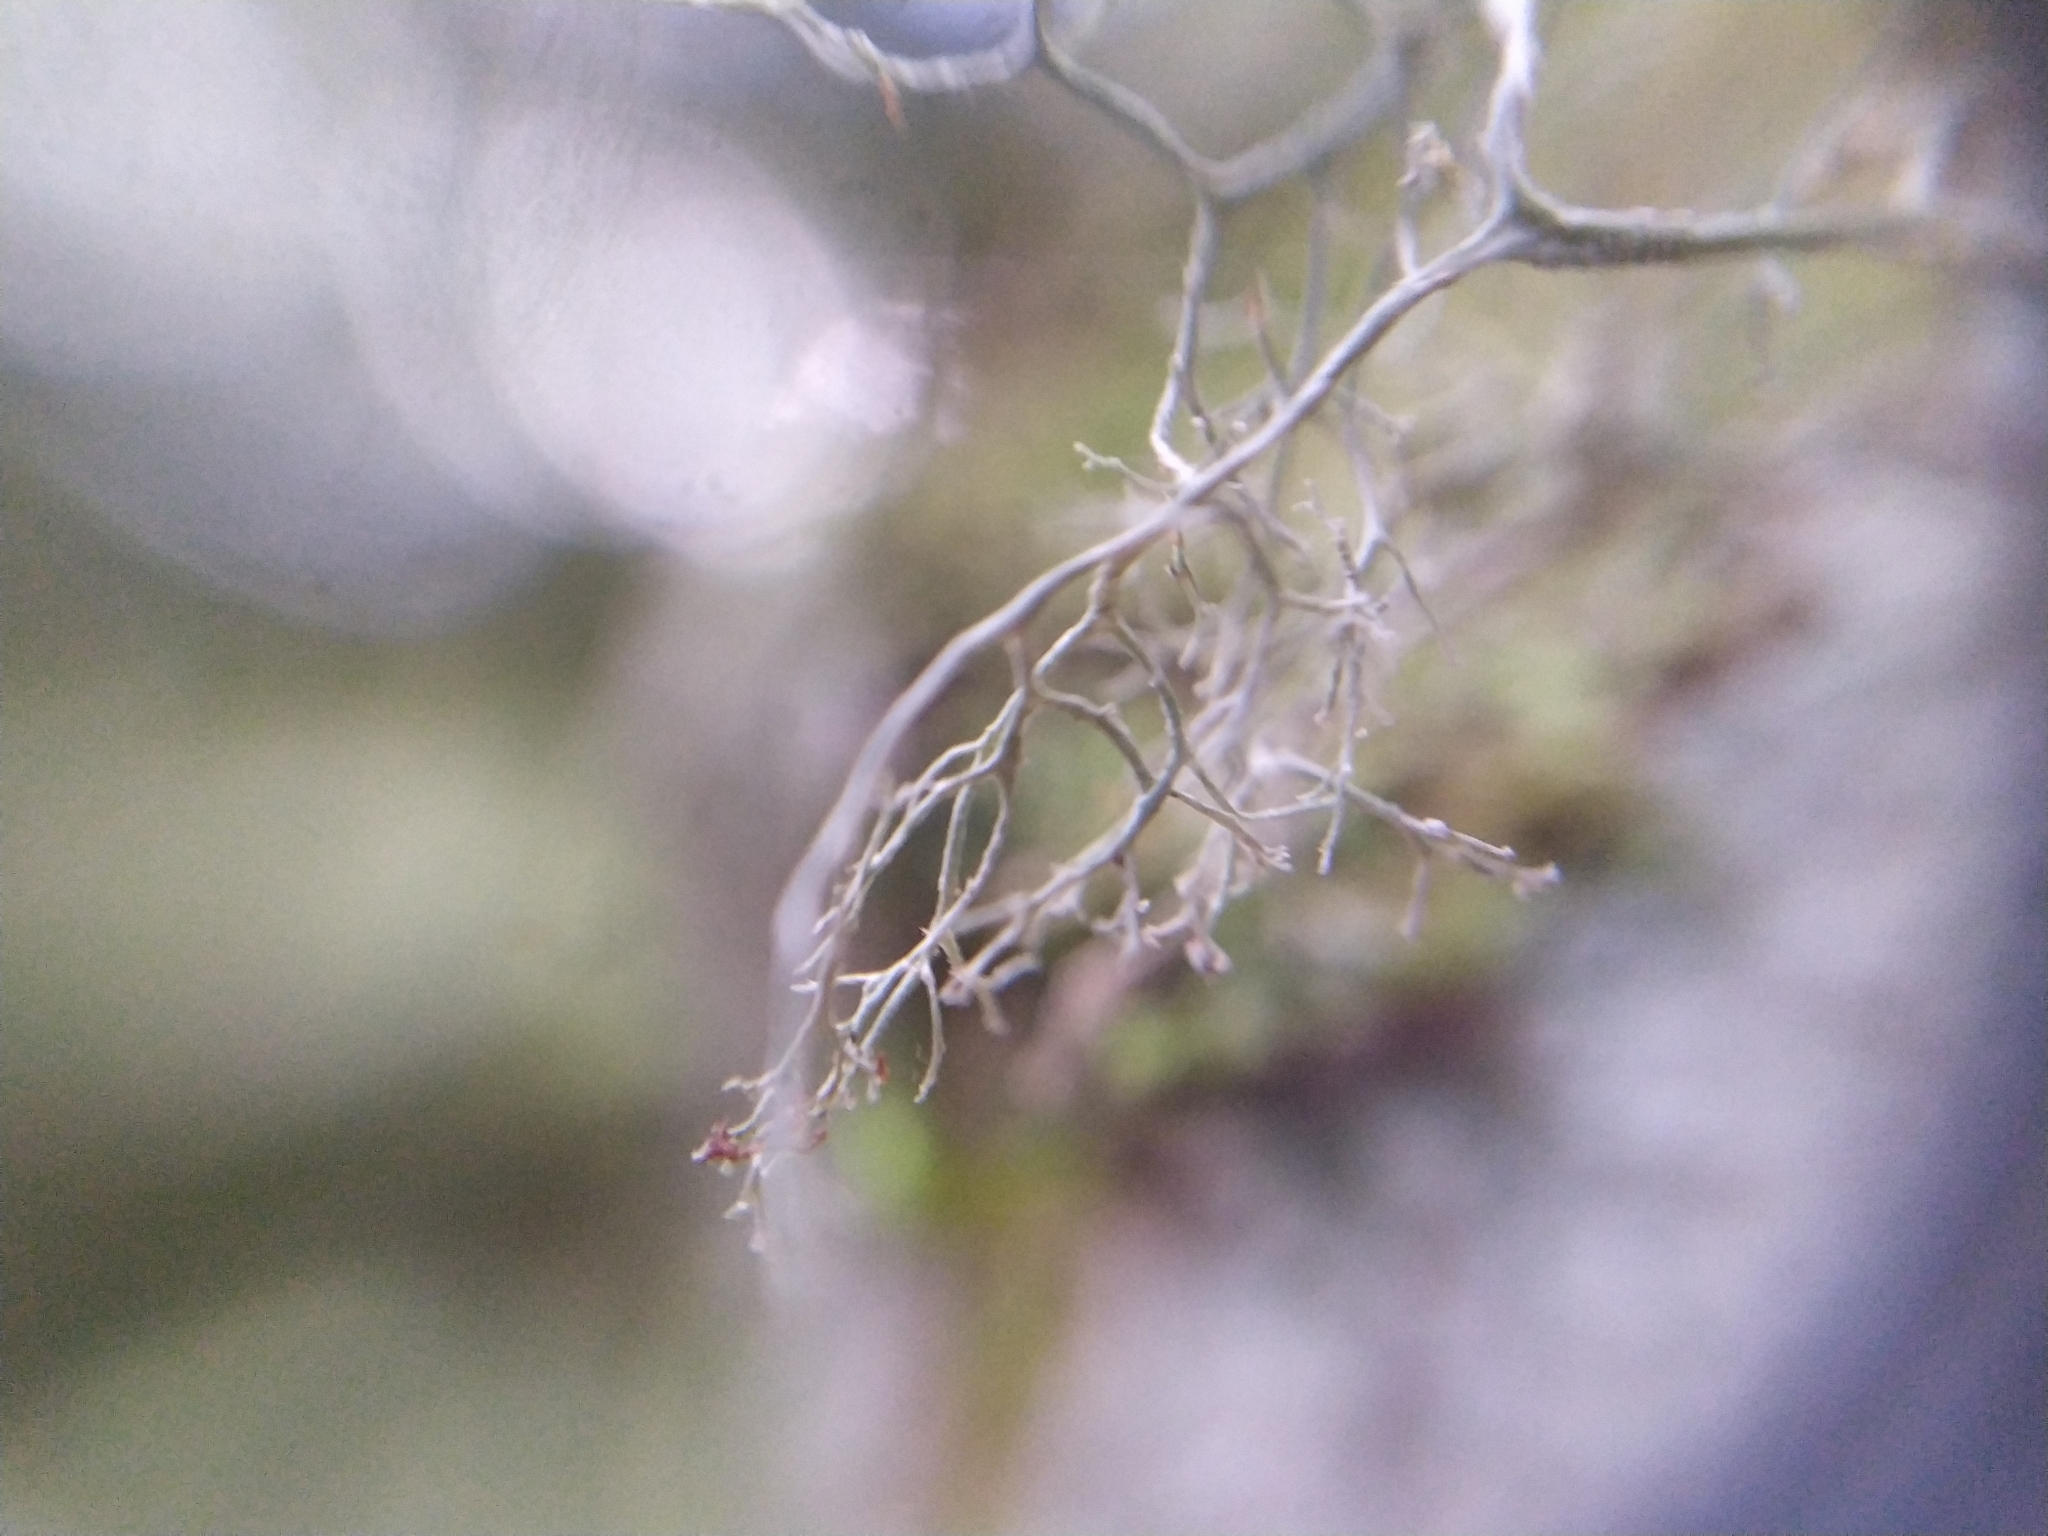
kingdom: Fungi
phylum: Ascomycota
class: Lecanoromycetes
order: Lecanorales
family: Ramalinaceae
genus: Ramalina
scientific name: Ramalina peruviana
